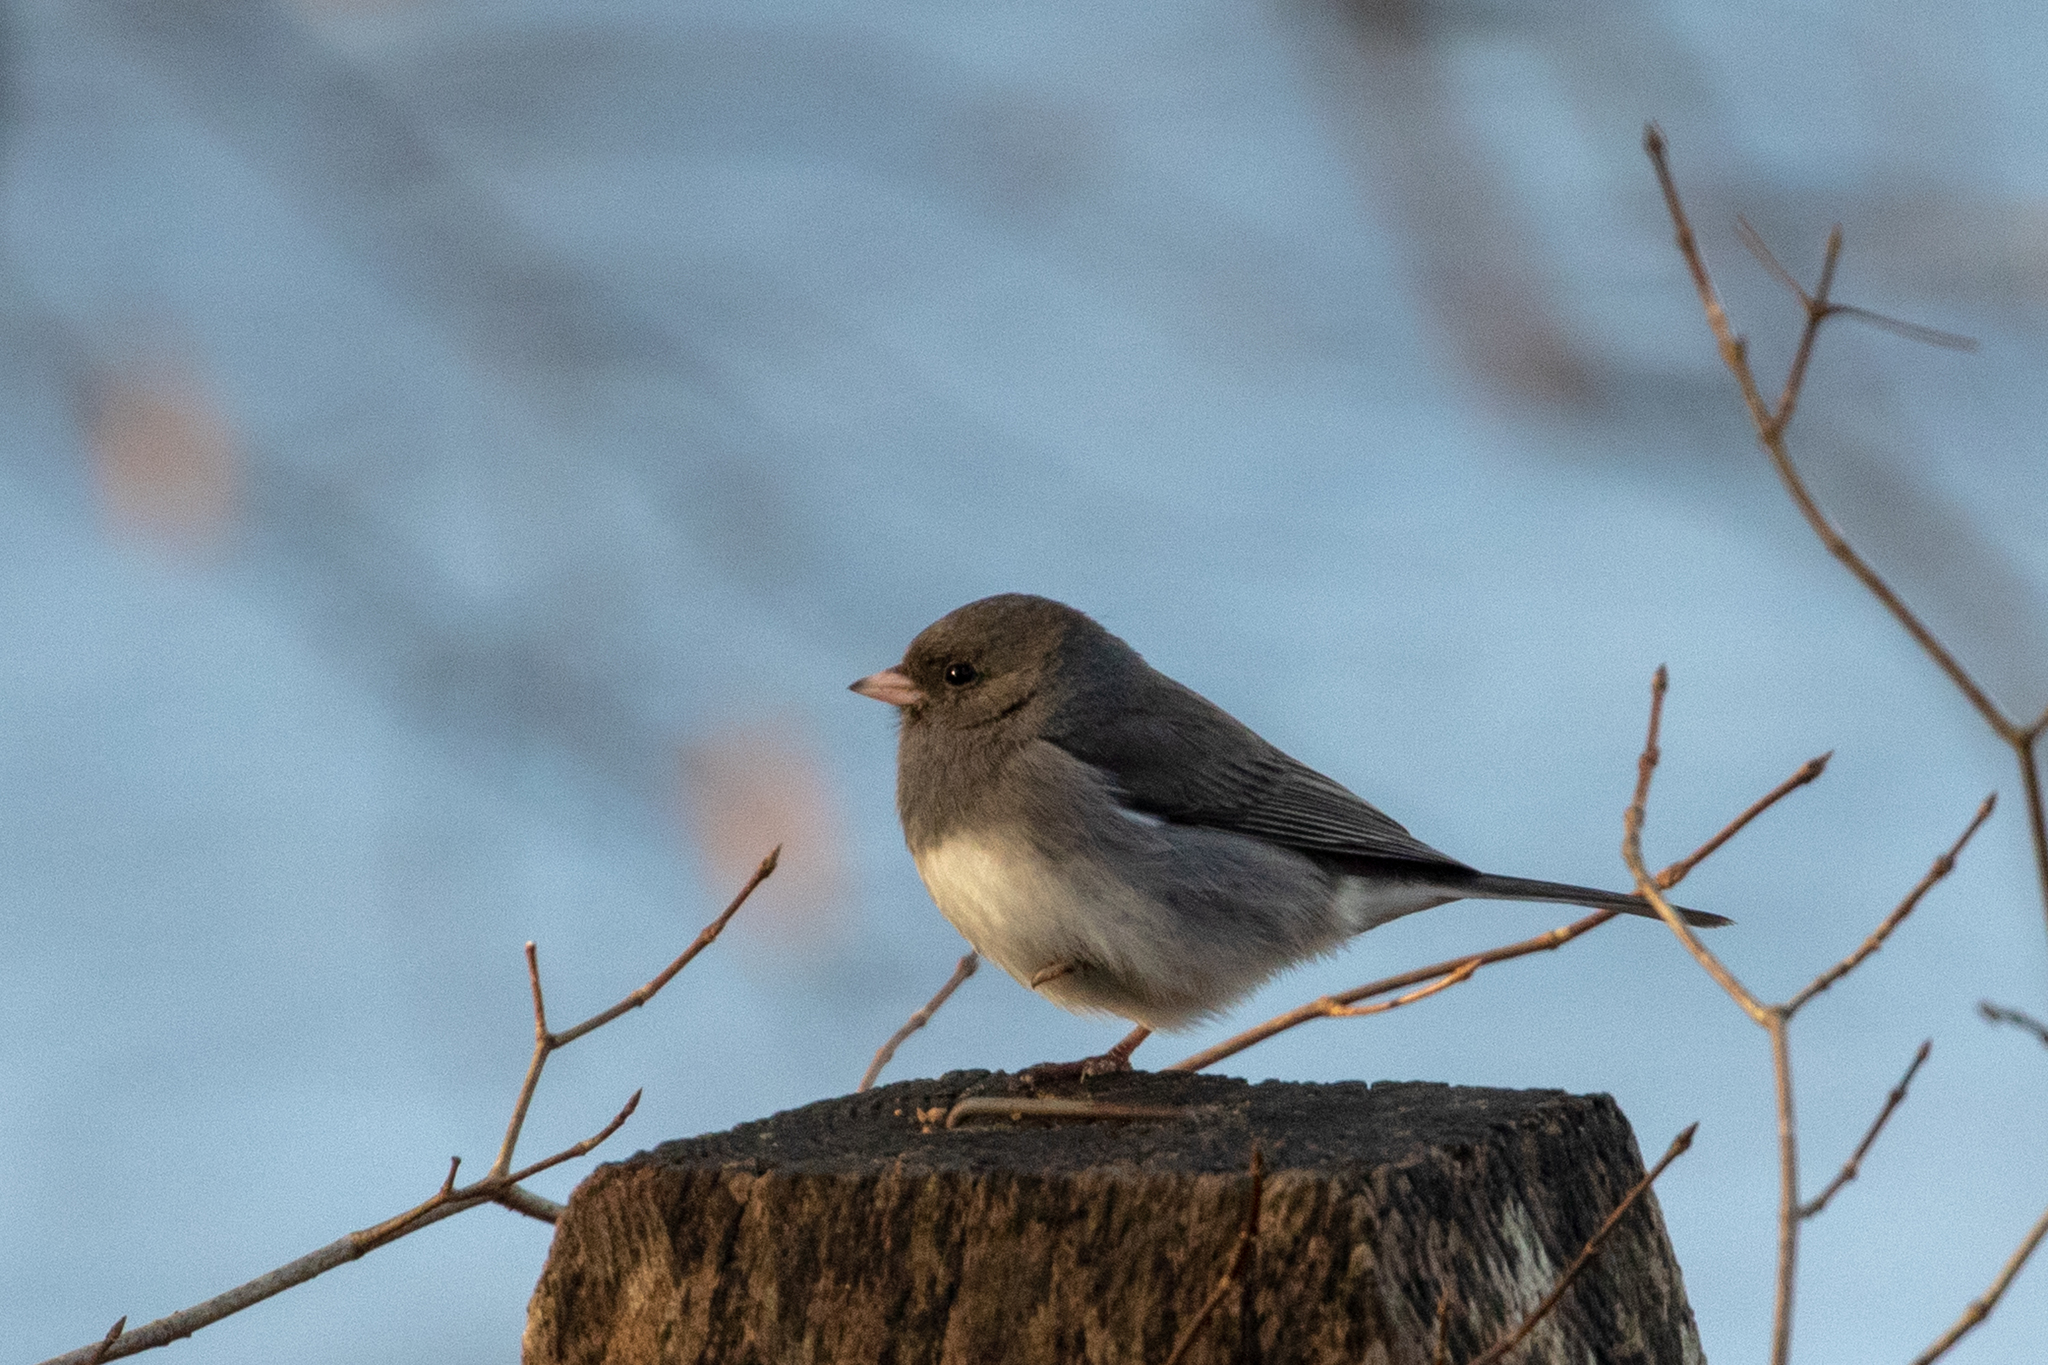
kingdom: Animalia
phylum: Chordata
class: Aves
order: Passeriformes
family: Passerellidae
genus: Junco
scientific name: Junco hyemalis
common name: Dark-eyed junco
